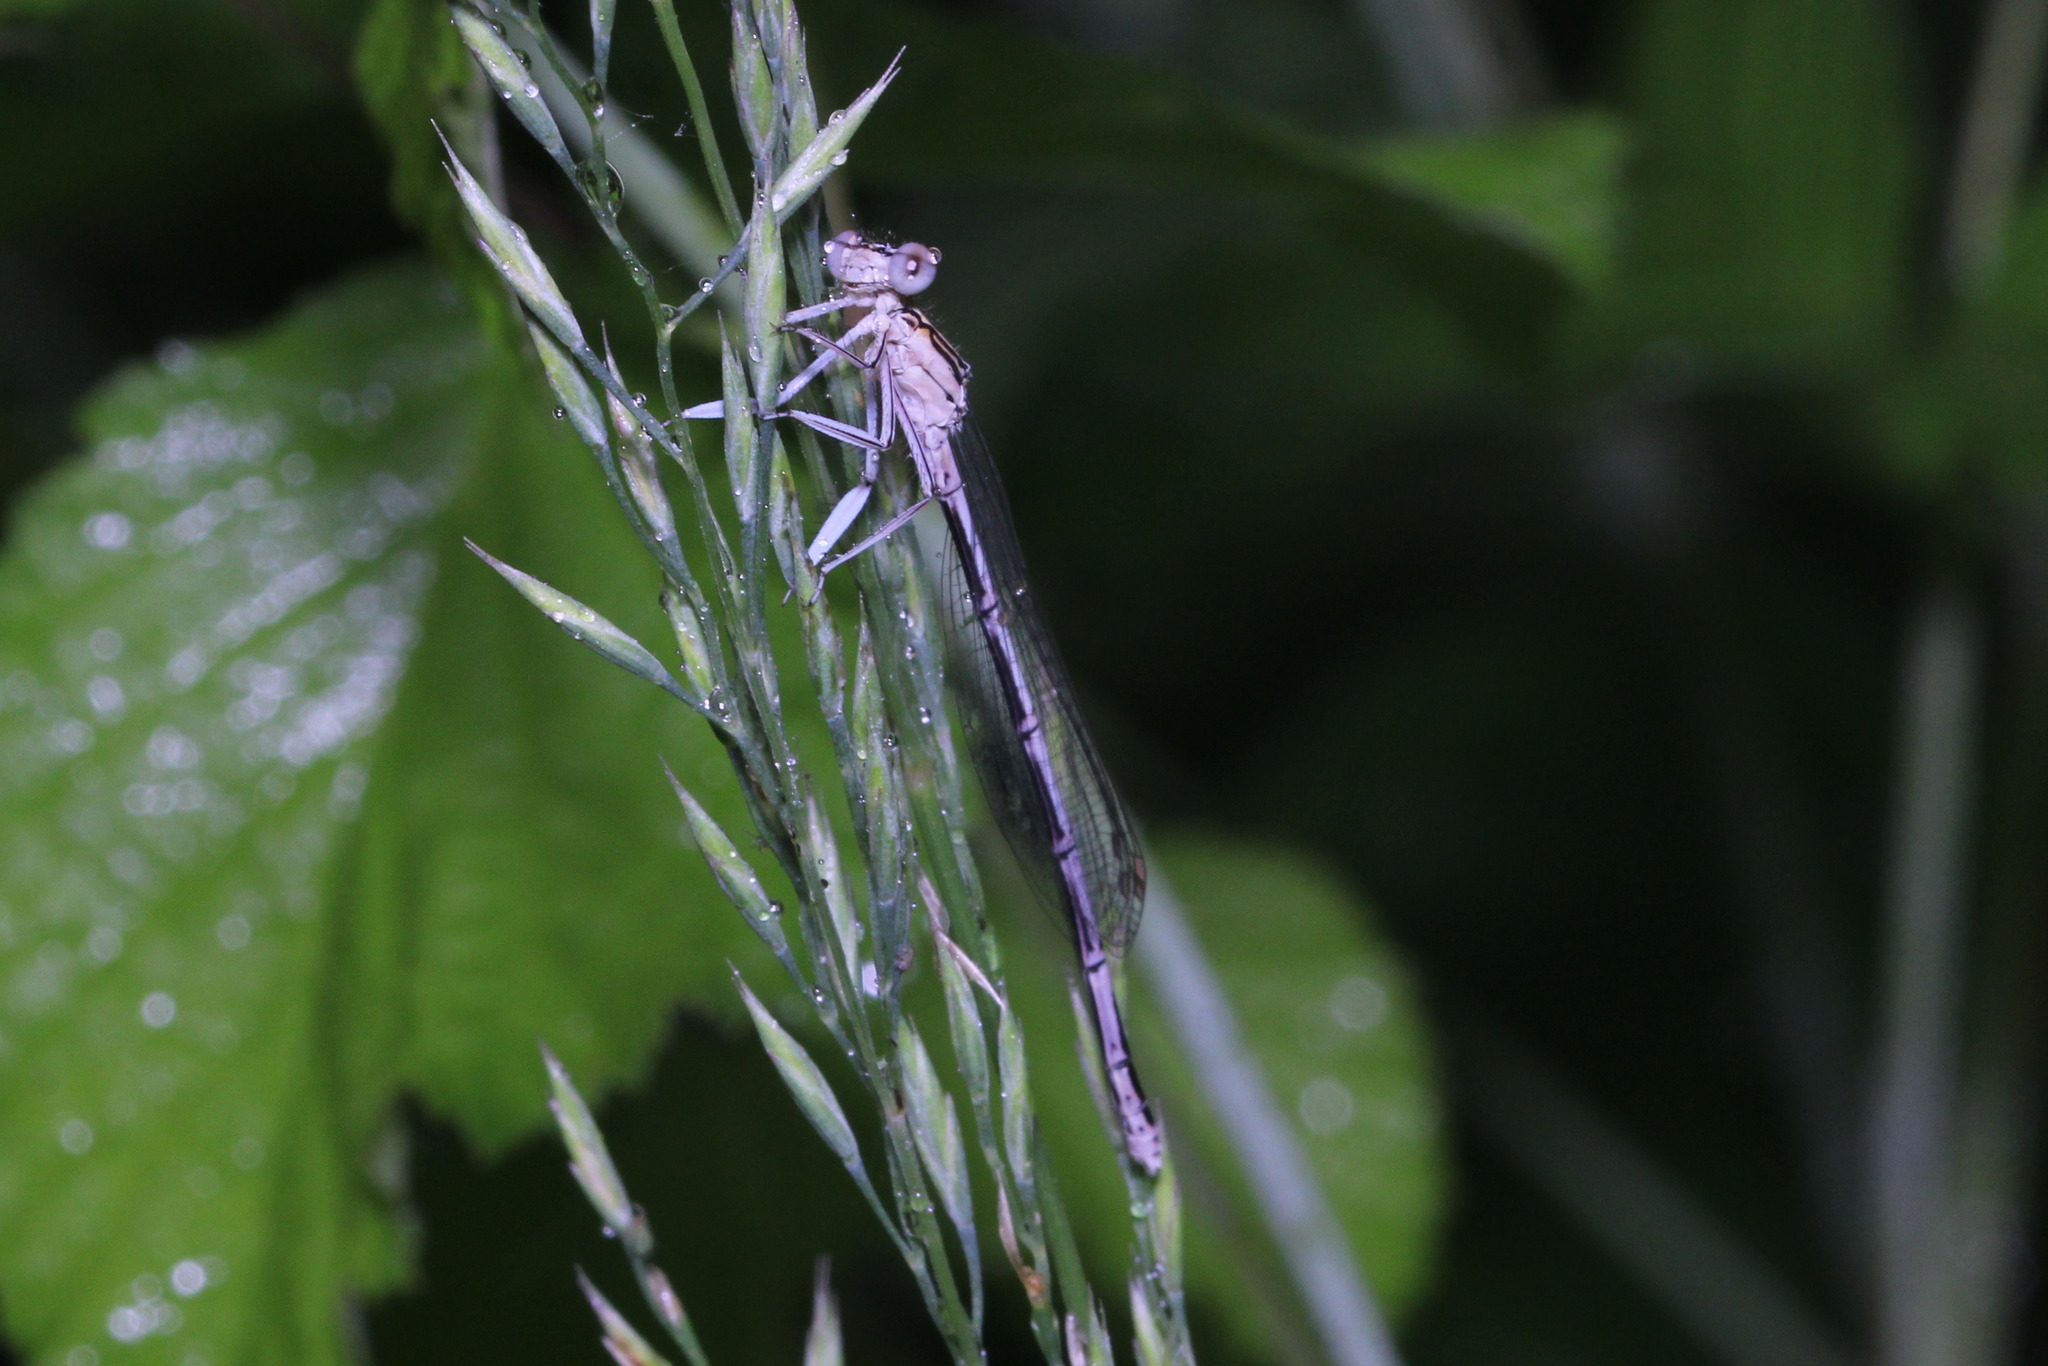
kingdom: Animalia
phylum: Arthropoda
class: Insecta
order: Odonata
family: Platycnemididae
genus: Platycnemis
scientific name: Platycnemis pennipes
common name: White-legged damselfly
